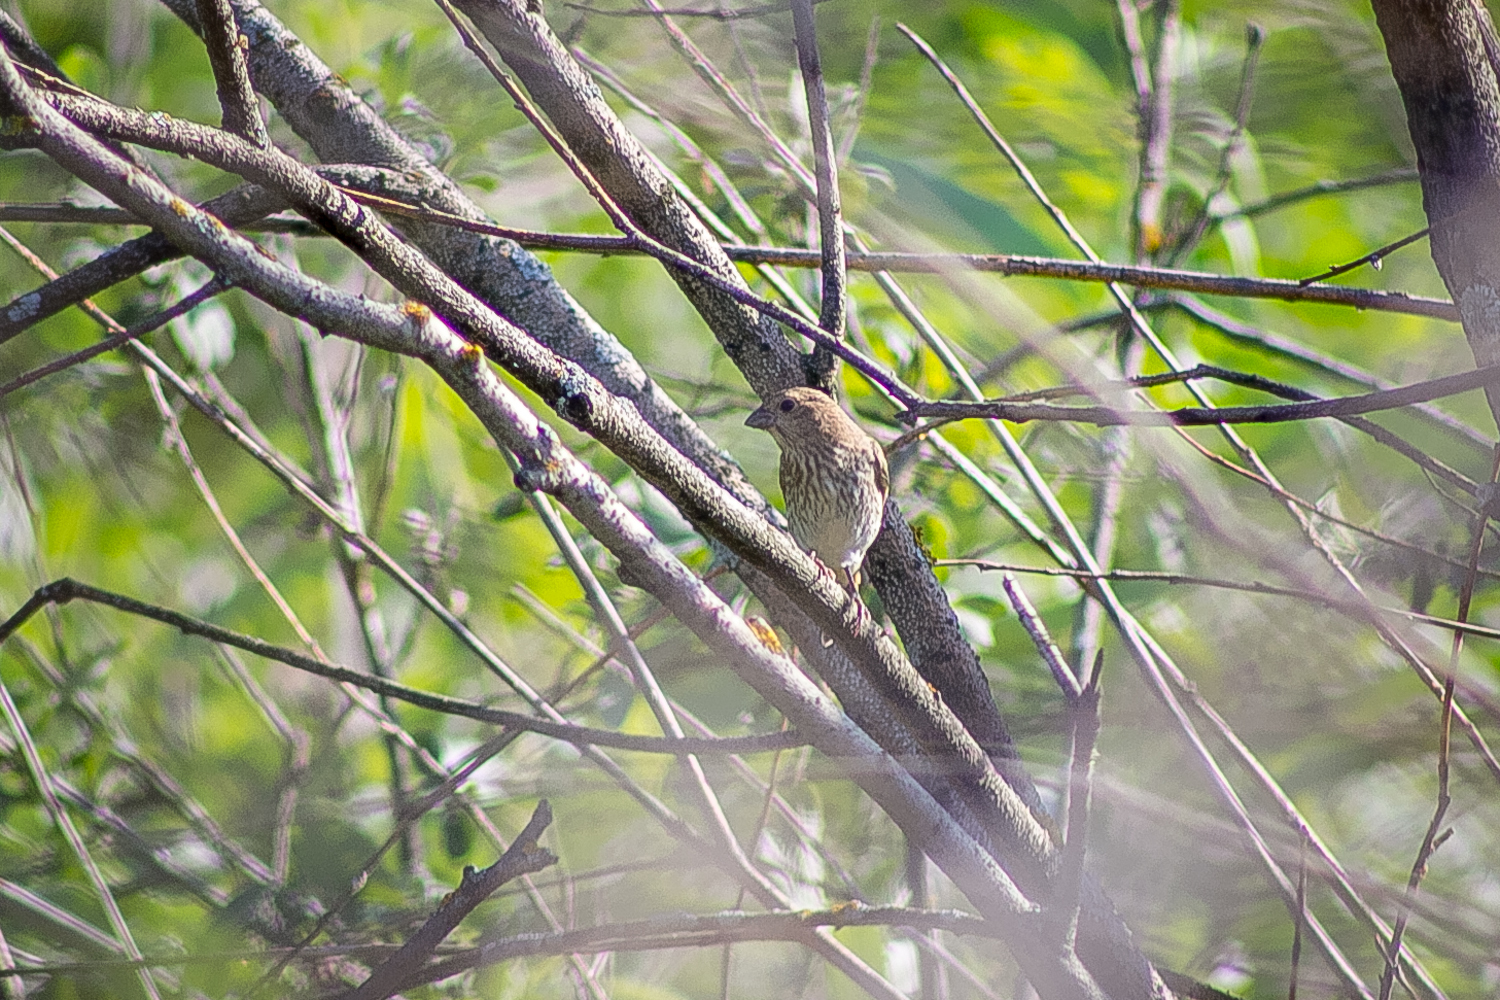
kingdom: Animalia
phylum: Chordata
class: Aves
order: Passeriformes
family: Fringillidae
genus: Carpodacus
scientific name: Carpodacus erythrinus
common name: Common rosefinch
